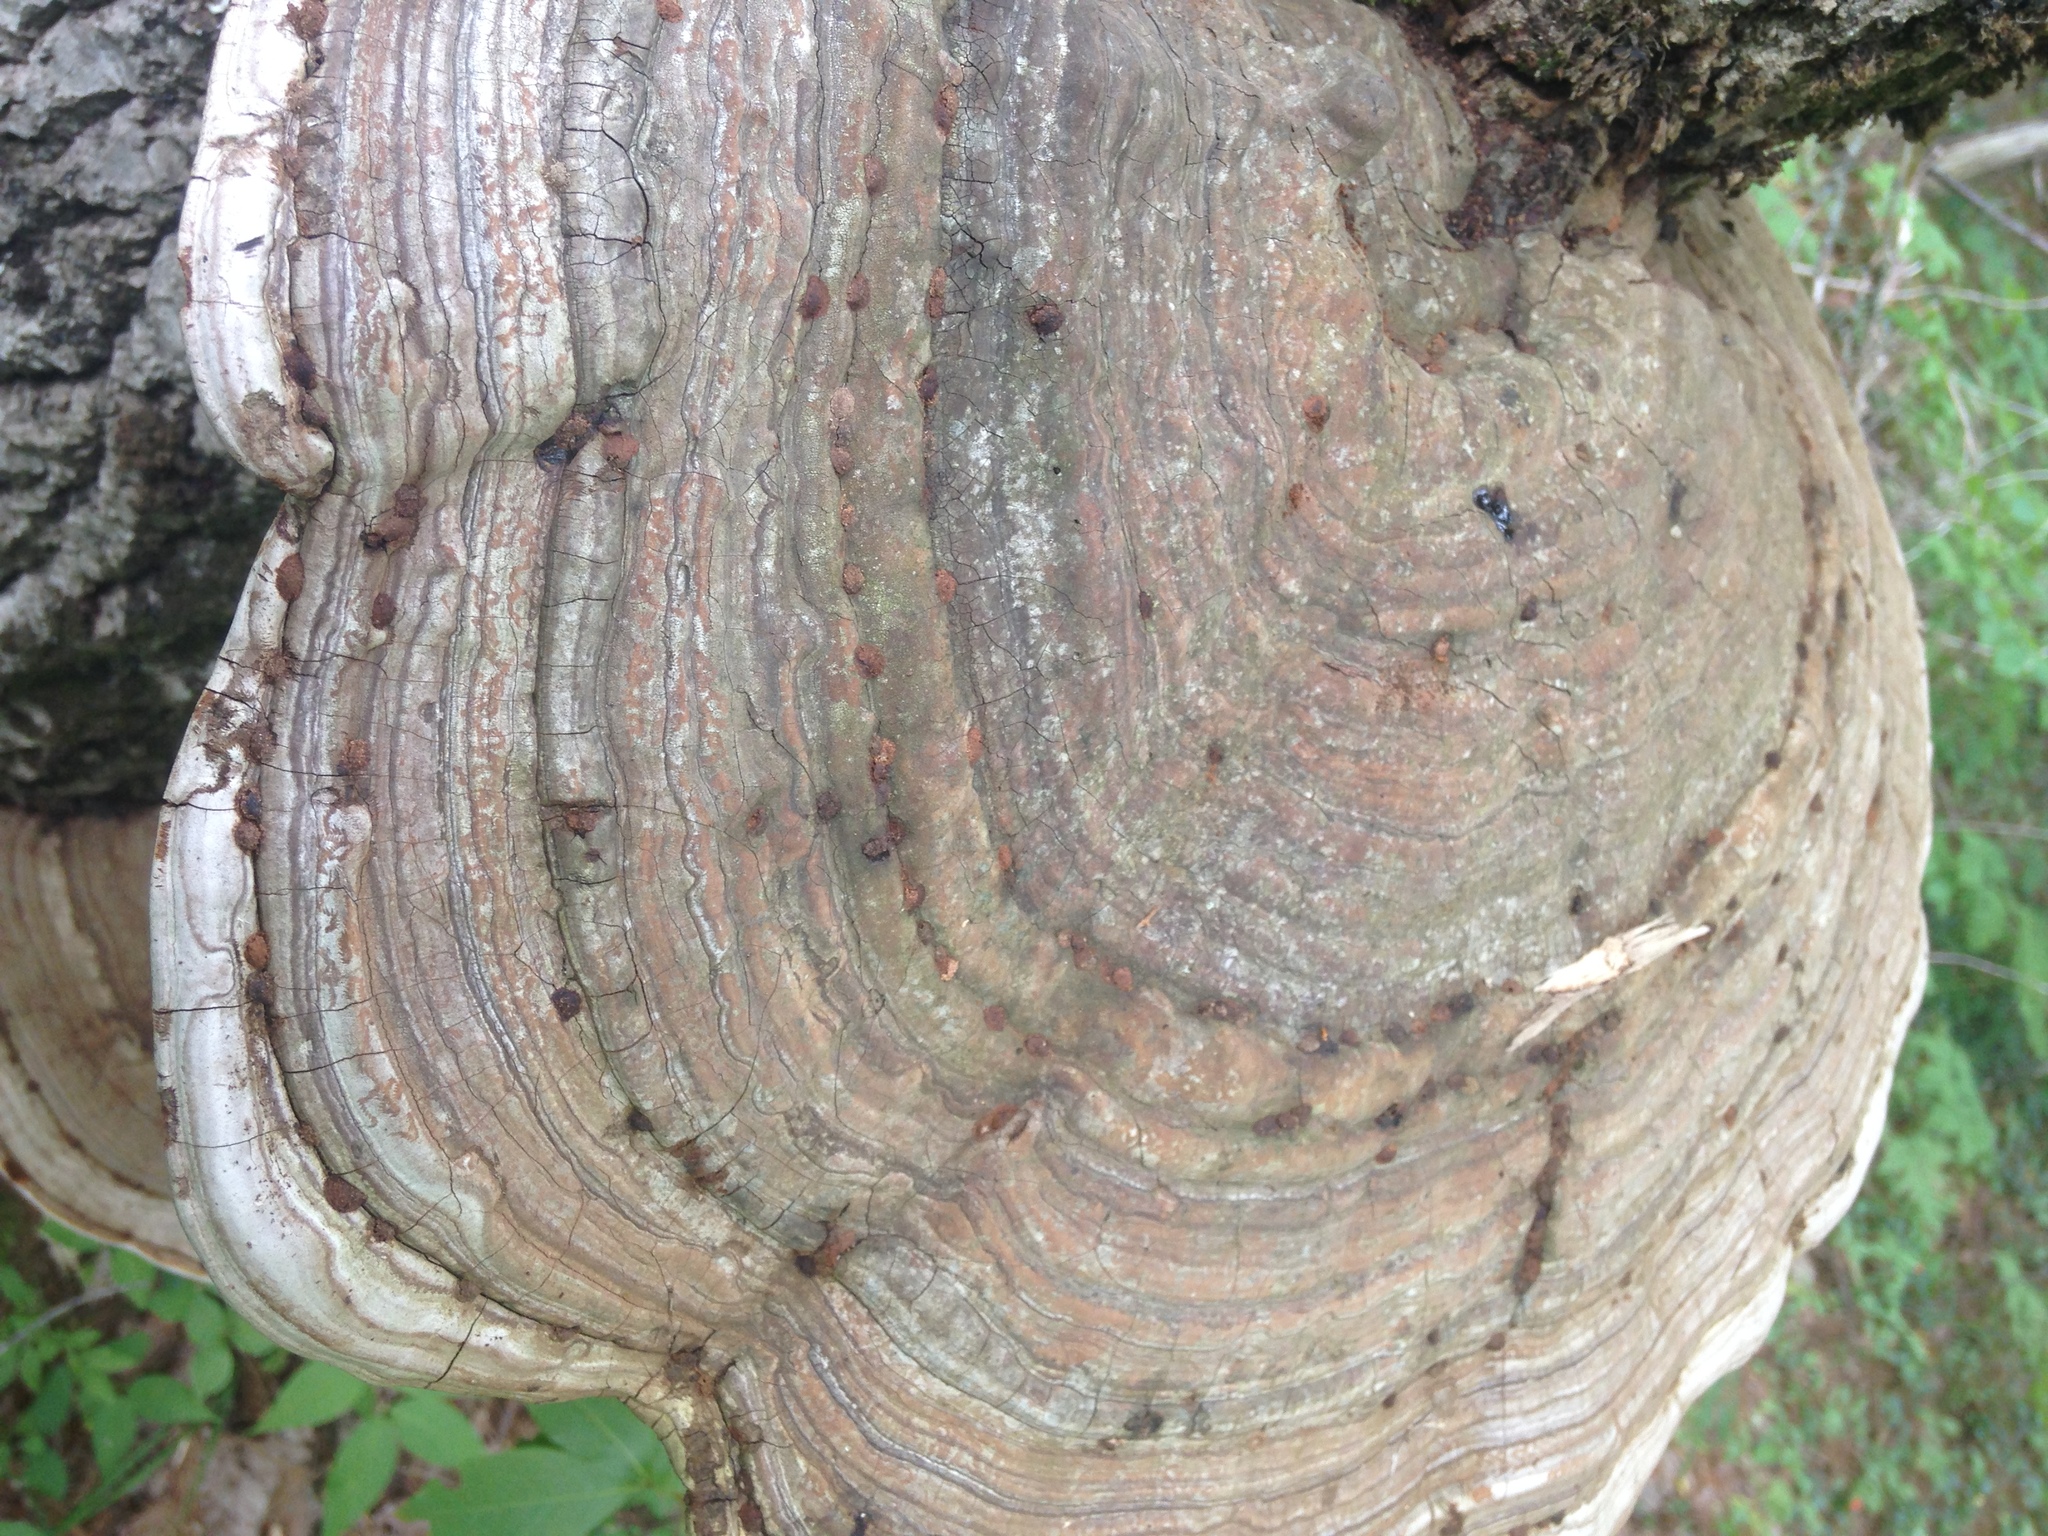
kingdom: Fungi
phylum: Basidiomycota
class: Agaricomycetes
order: Polyporales
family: Polyporaceae
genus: Ganoderma
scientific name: Ganoderma applanatum
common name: Artist's bracket
